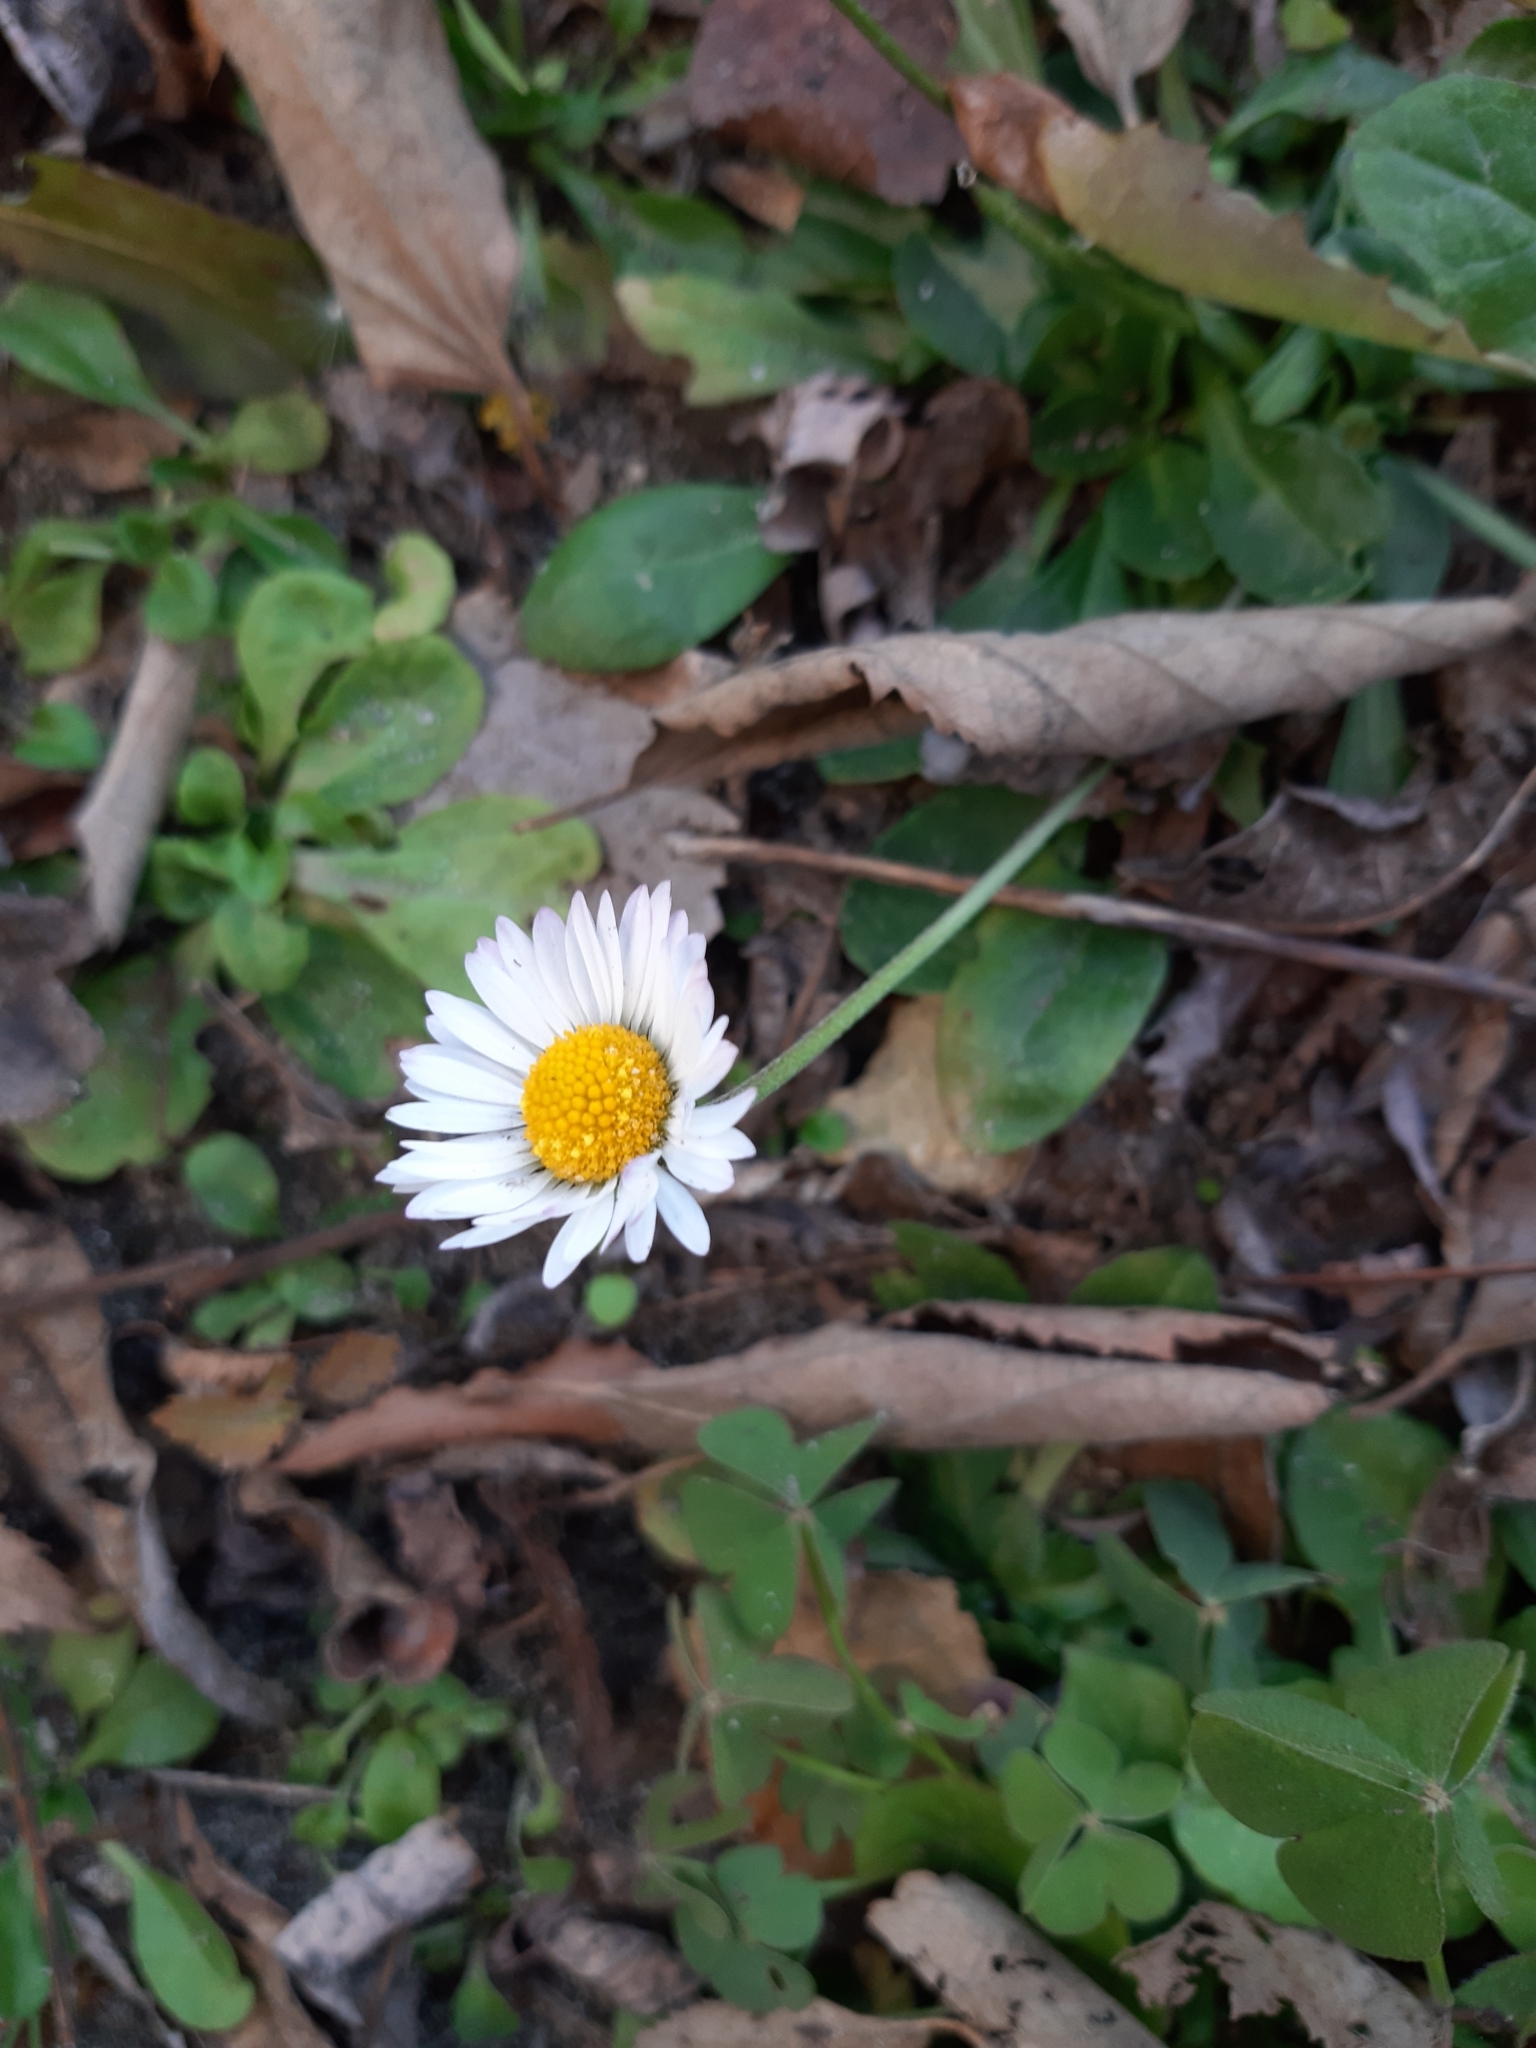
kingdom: Plantae
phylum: Tracheophyta
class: Magnoliopsida
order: Asterales
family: Asteraceae
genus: Bellis
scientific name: Bellis perennis
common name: Lawndaisy
